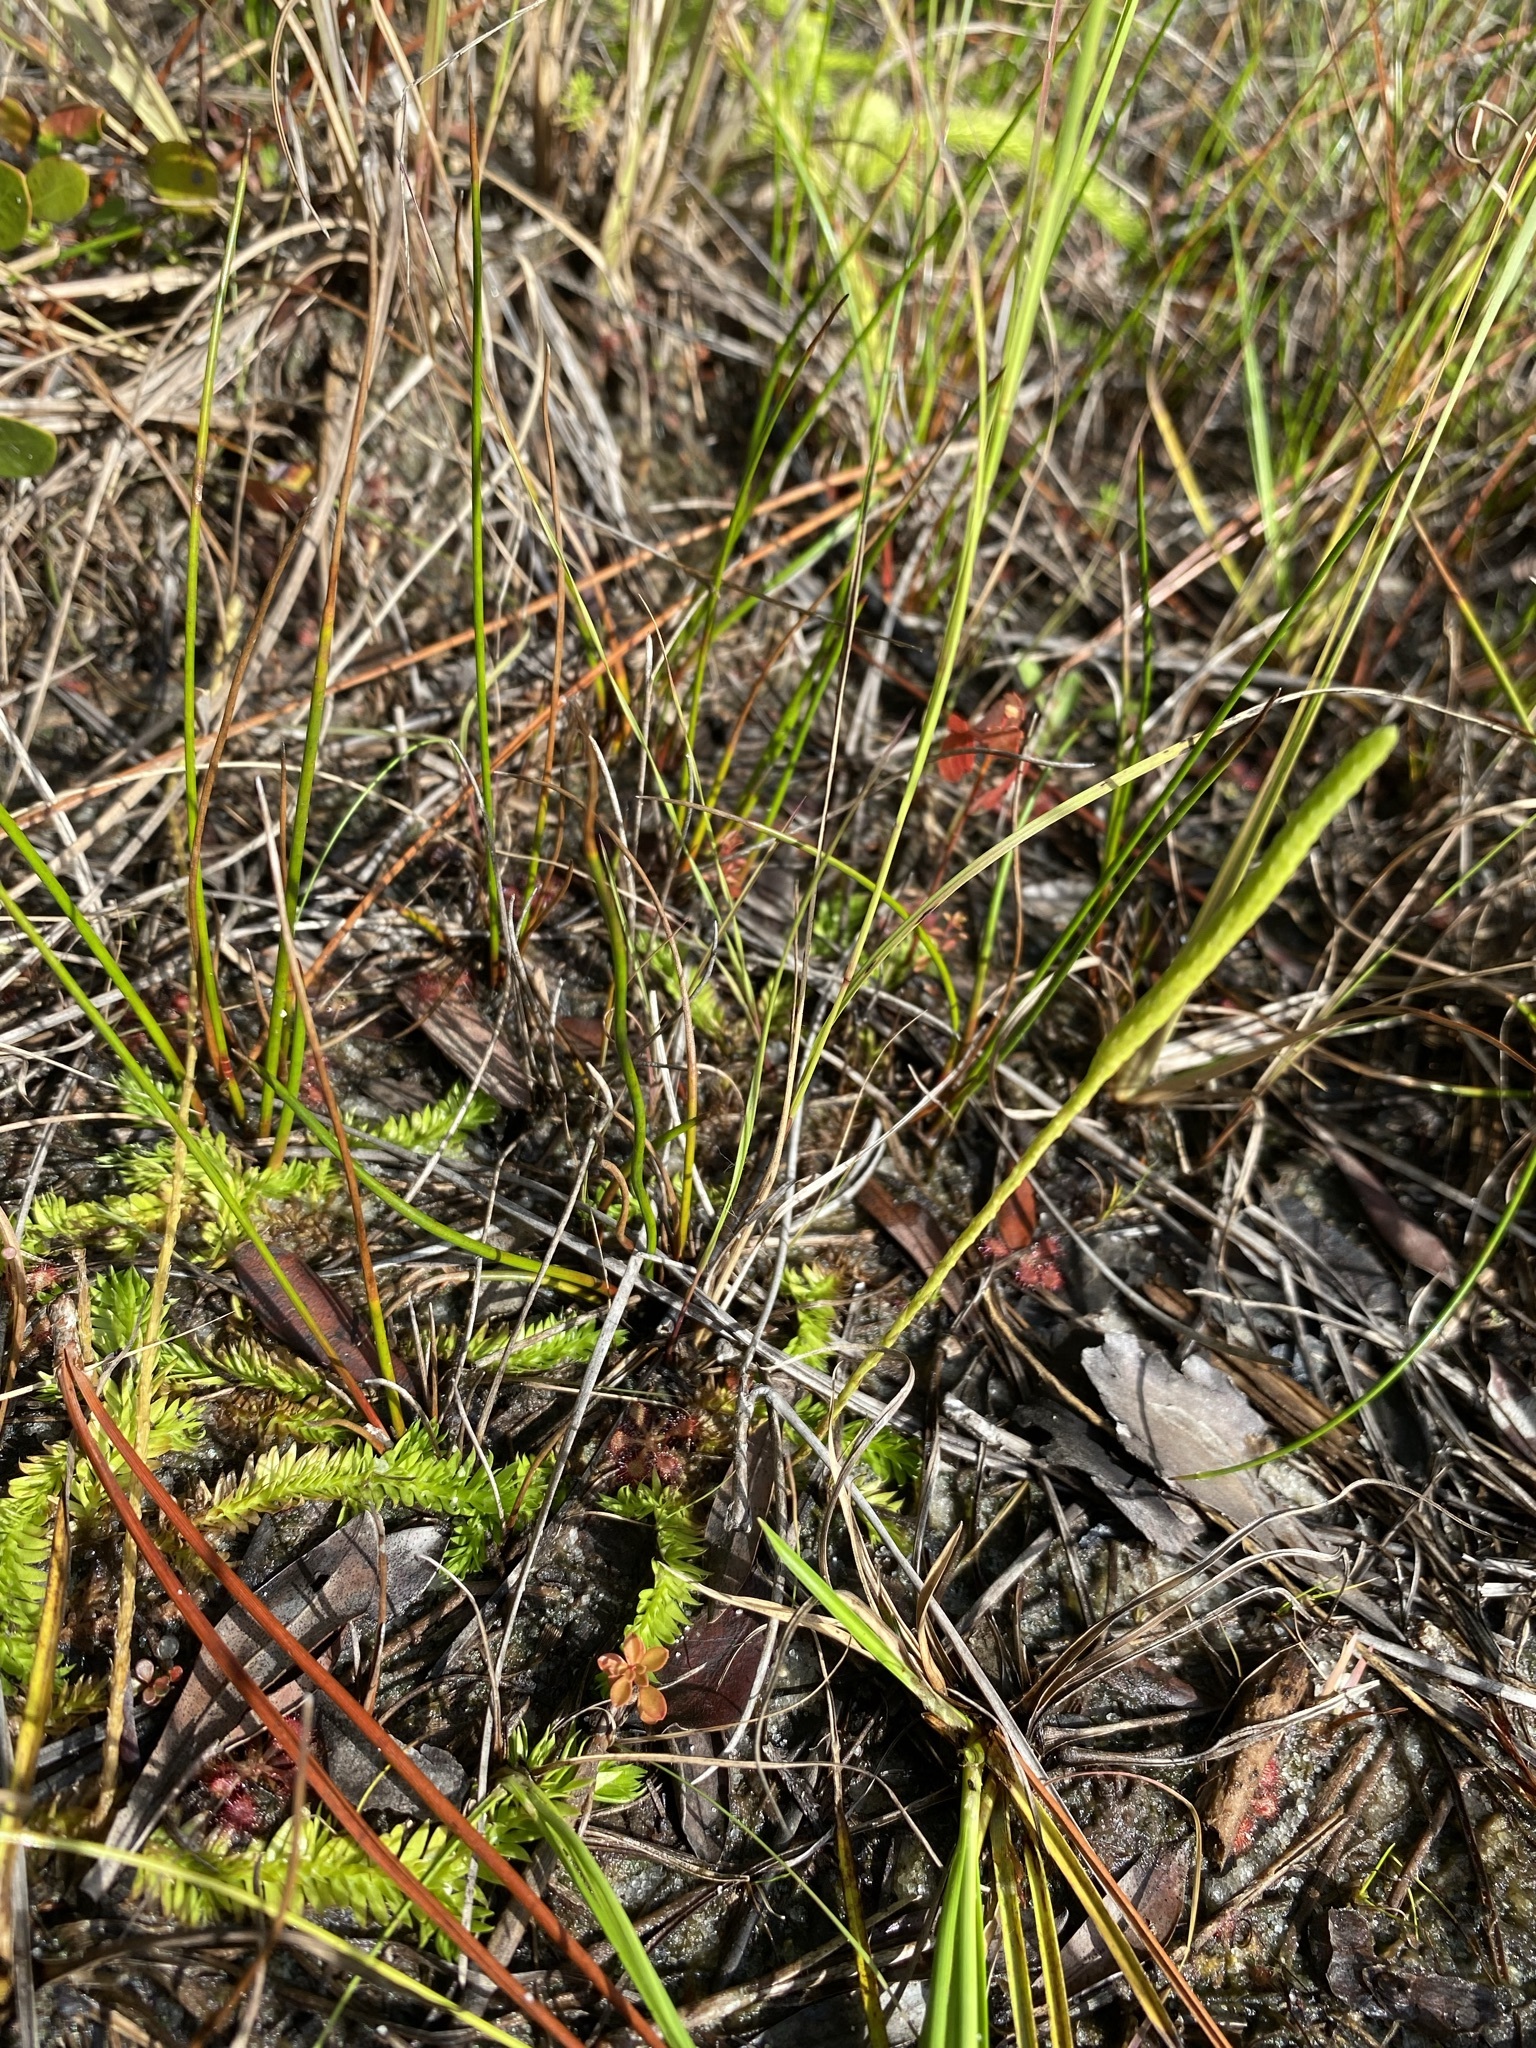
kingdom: Plantae
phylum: Tracheophyta
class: Lycopodiopsida
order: Lycopodiales
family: Lycopodiaceae
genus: Pseudolycopodiella
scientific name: Pseudolycopodiella caroliniana
